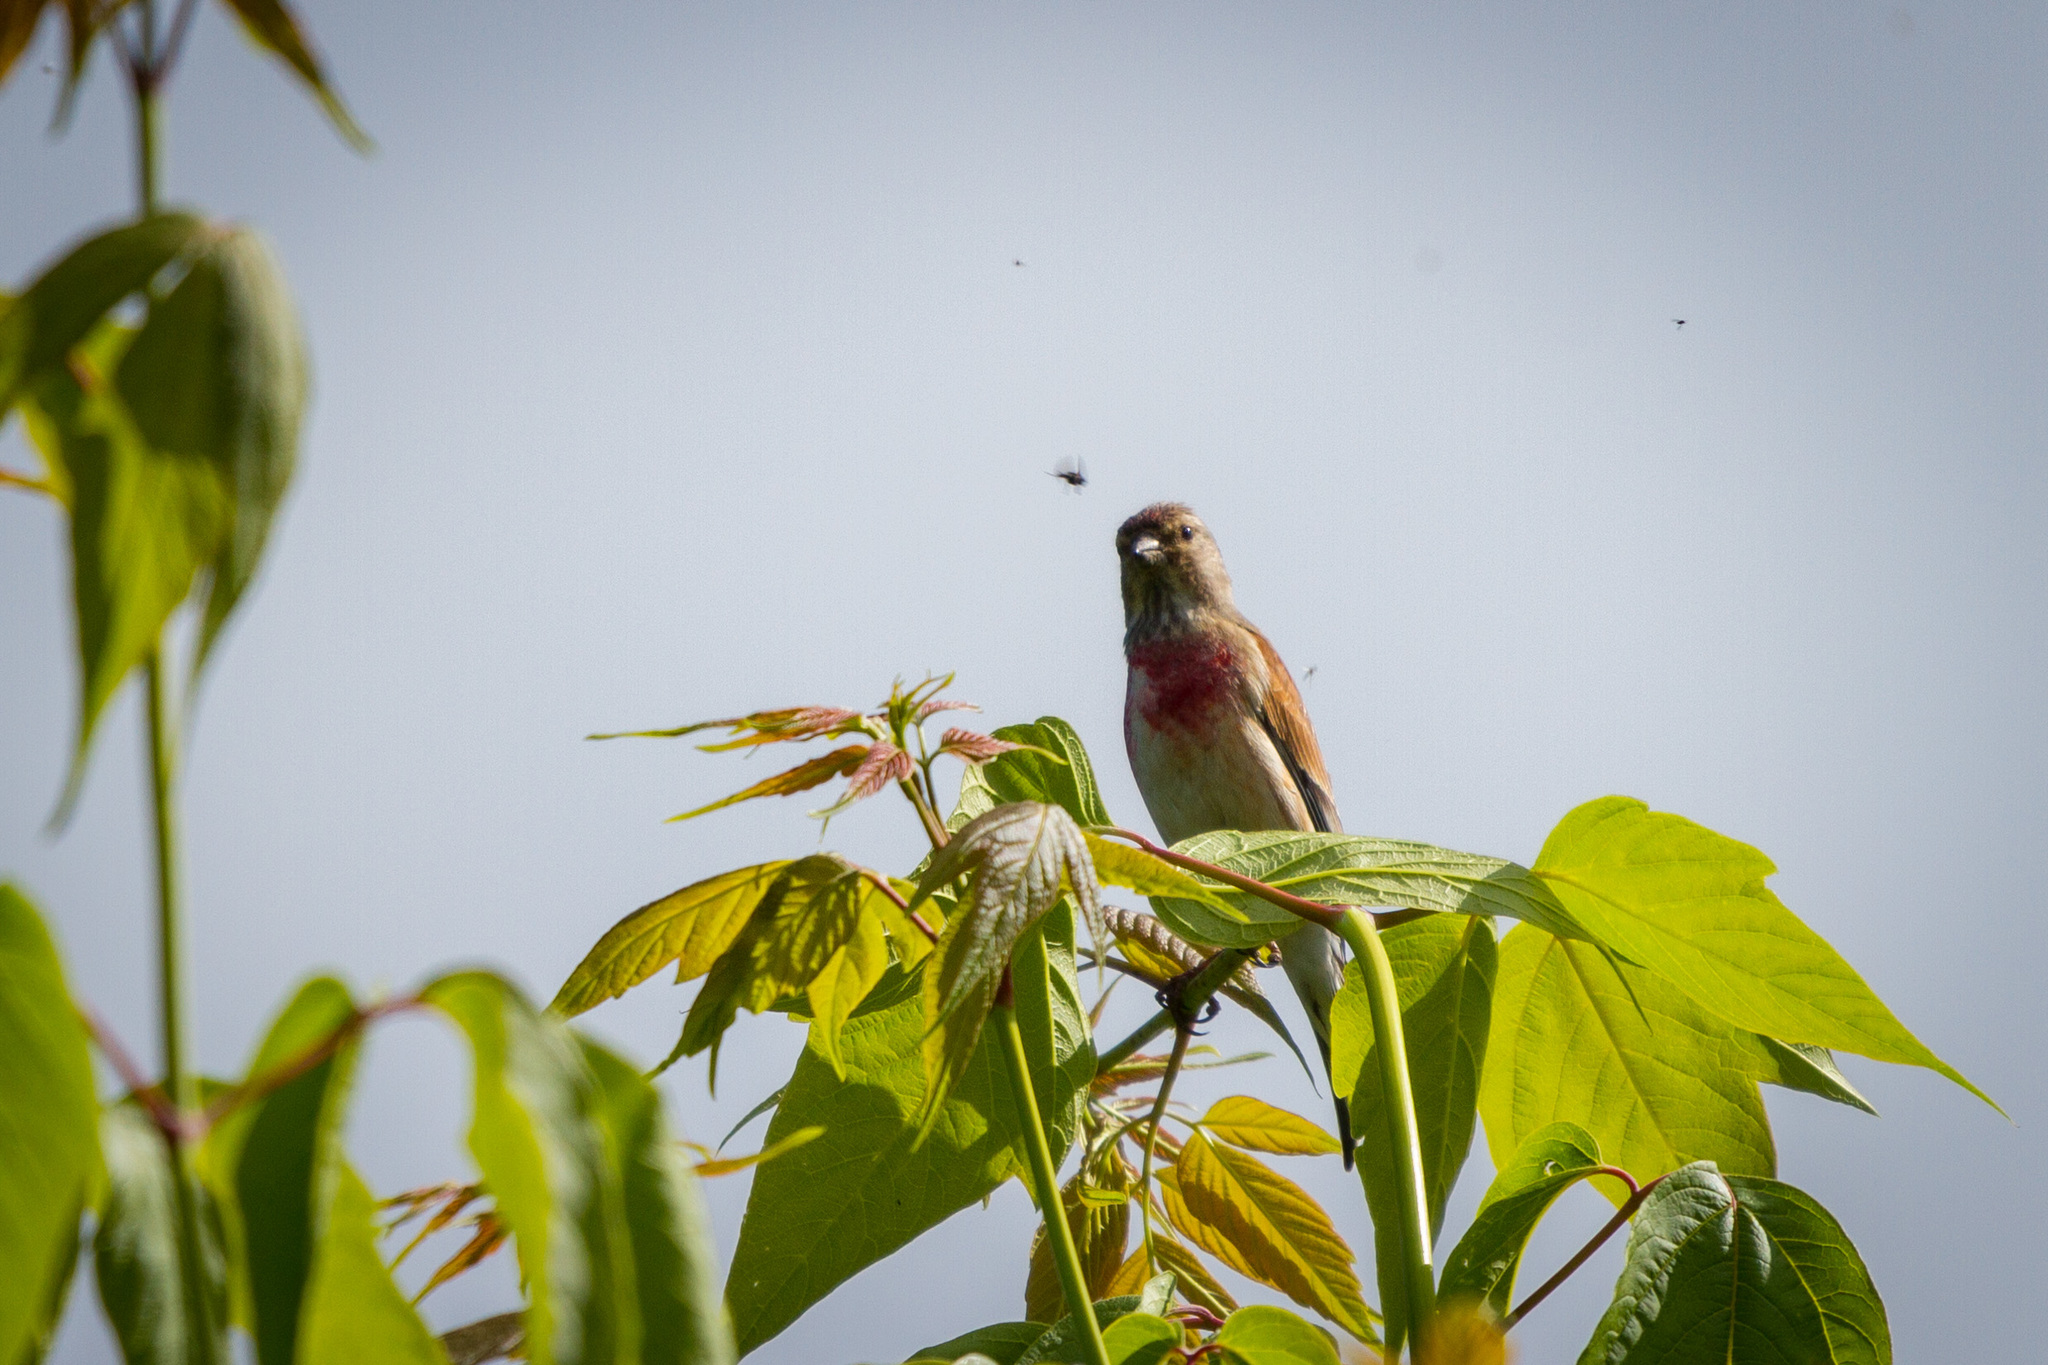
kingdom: Animalia
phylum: Chordata
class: Aves
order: Passeriformes
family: Fringillidae
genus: Linaria
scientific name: Linaria cannabina
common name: Common linnet
